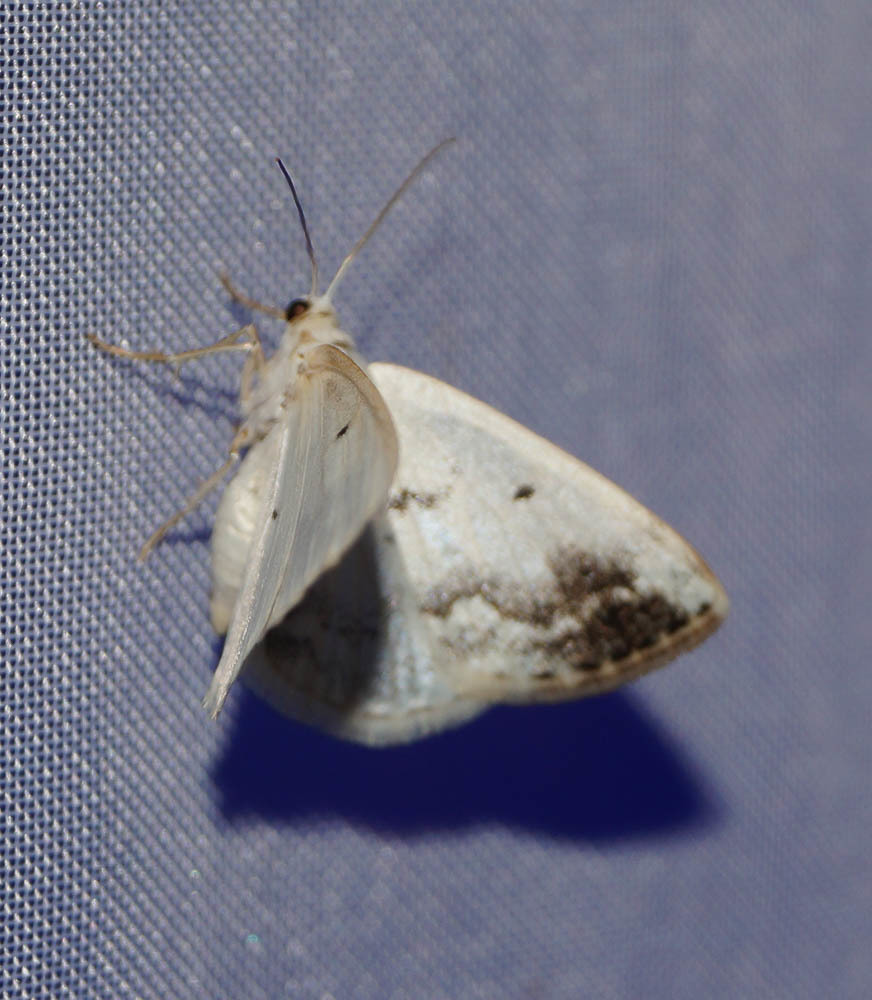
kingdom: Animalia
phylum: Arthropoda
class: Insecta
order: Lepidoptera
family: Geometridae
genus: Lomographa
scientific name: Lomographa temerata
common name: Clouded silver
